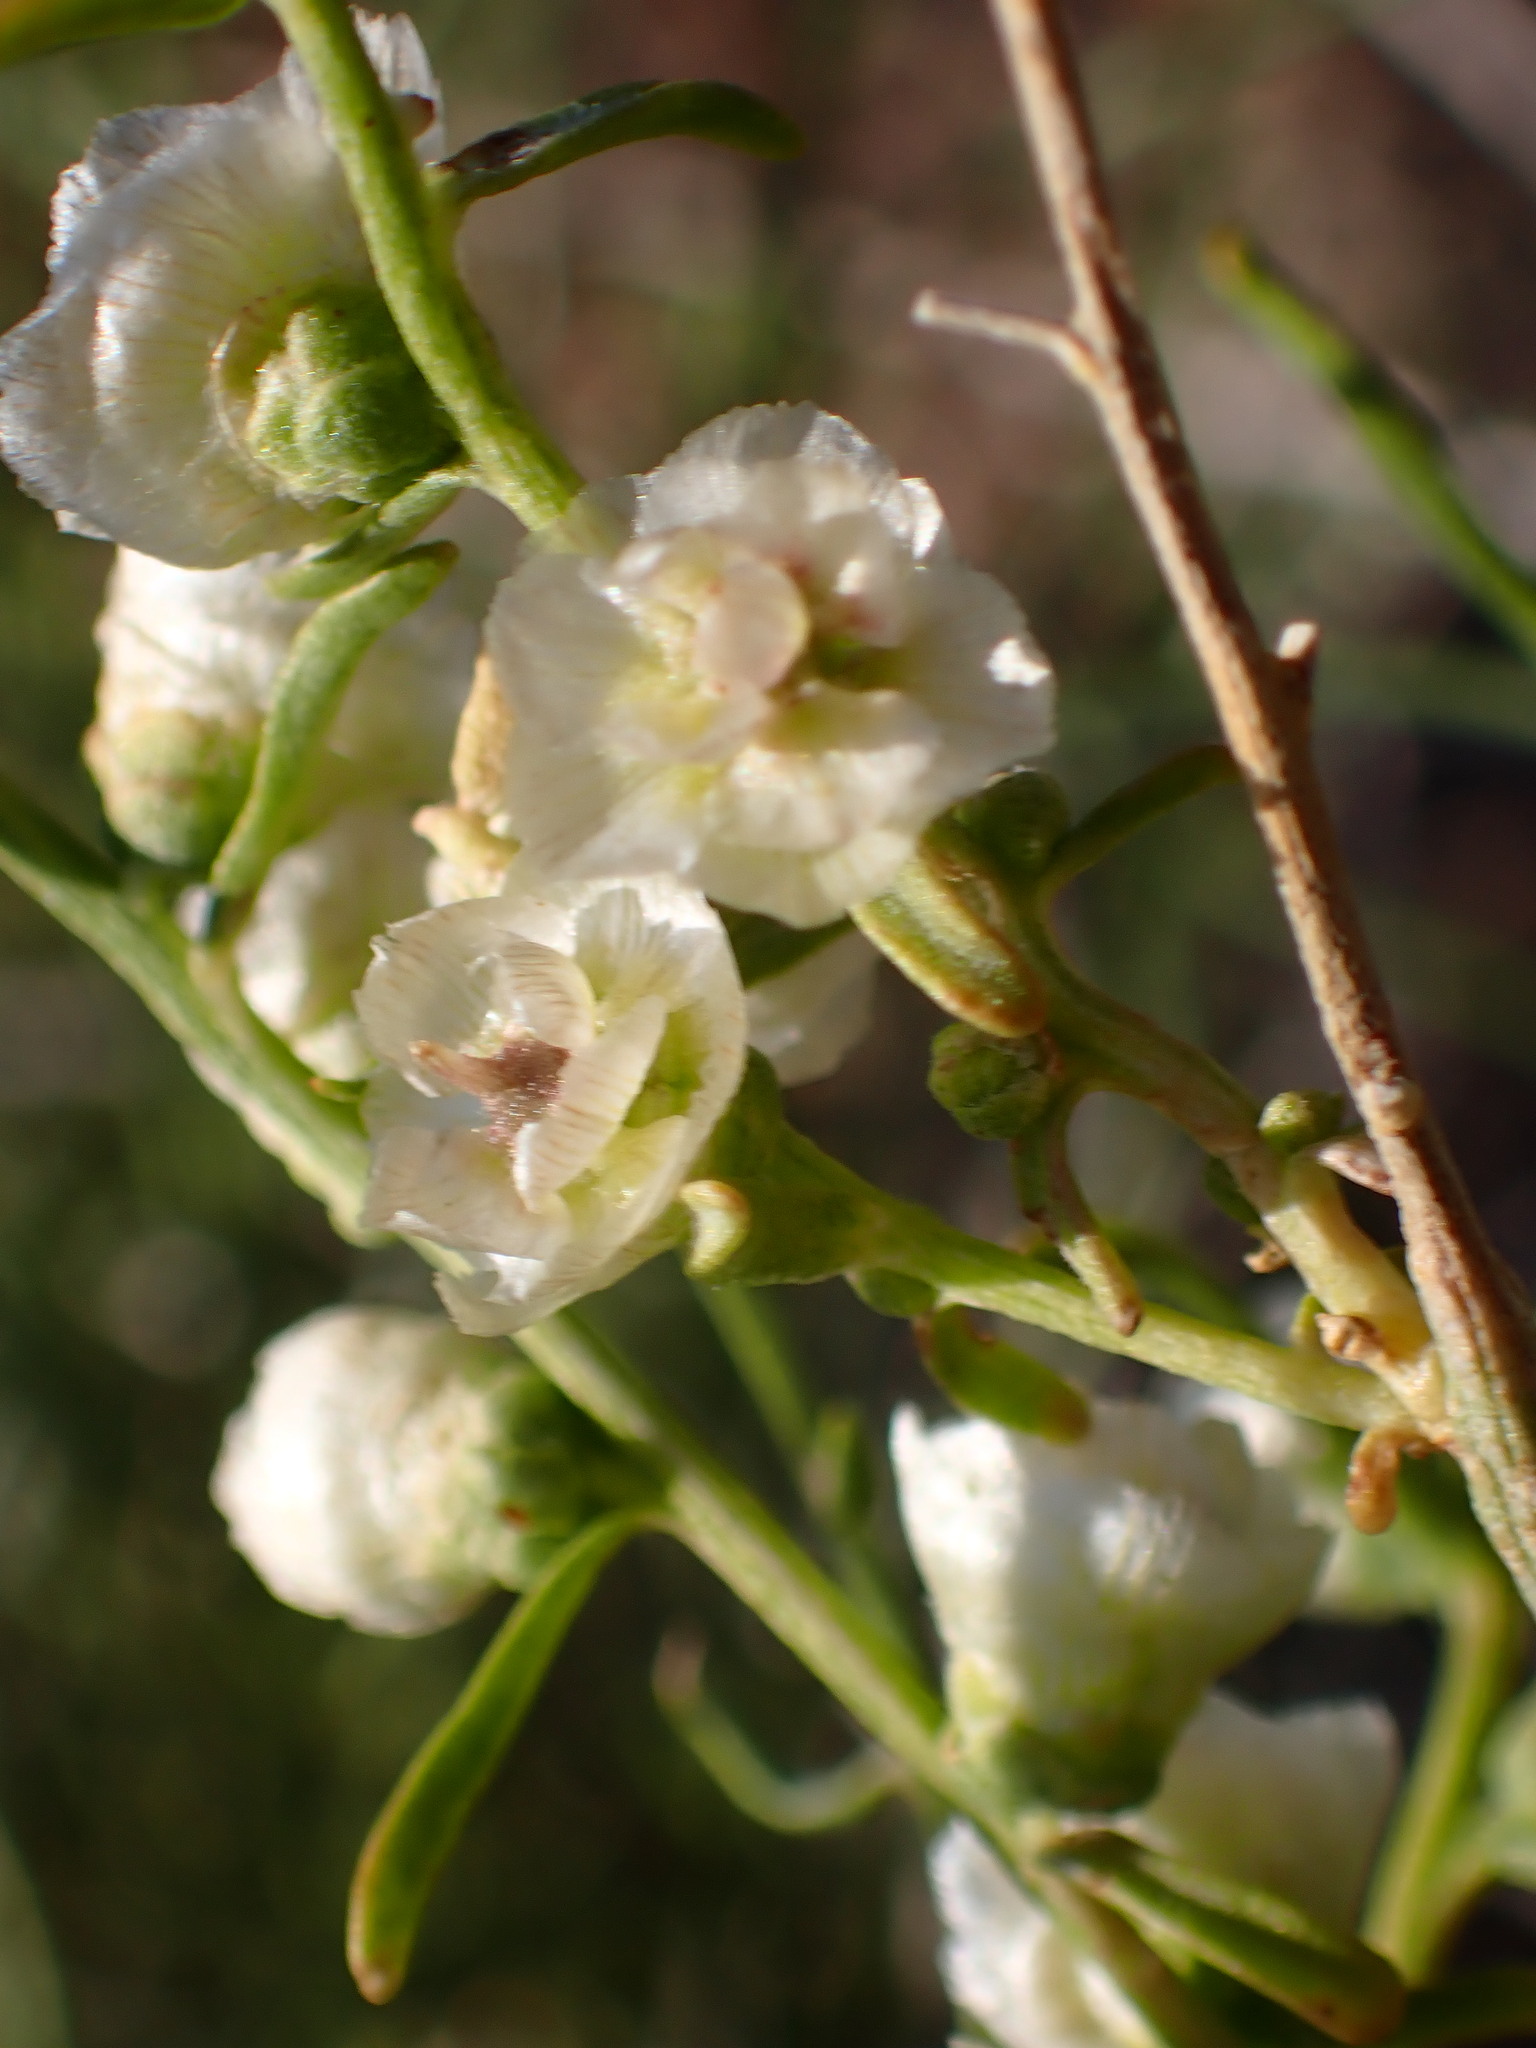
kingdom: Plantae
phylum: Tracheophyta
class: Magnoliopsida
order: Asterales
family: Asteraceae
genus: Ambrosia
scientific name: Ambrosia salsola
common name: Burrobrush
